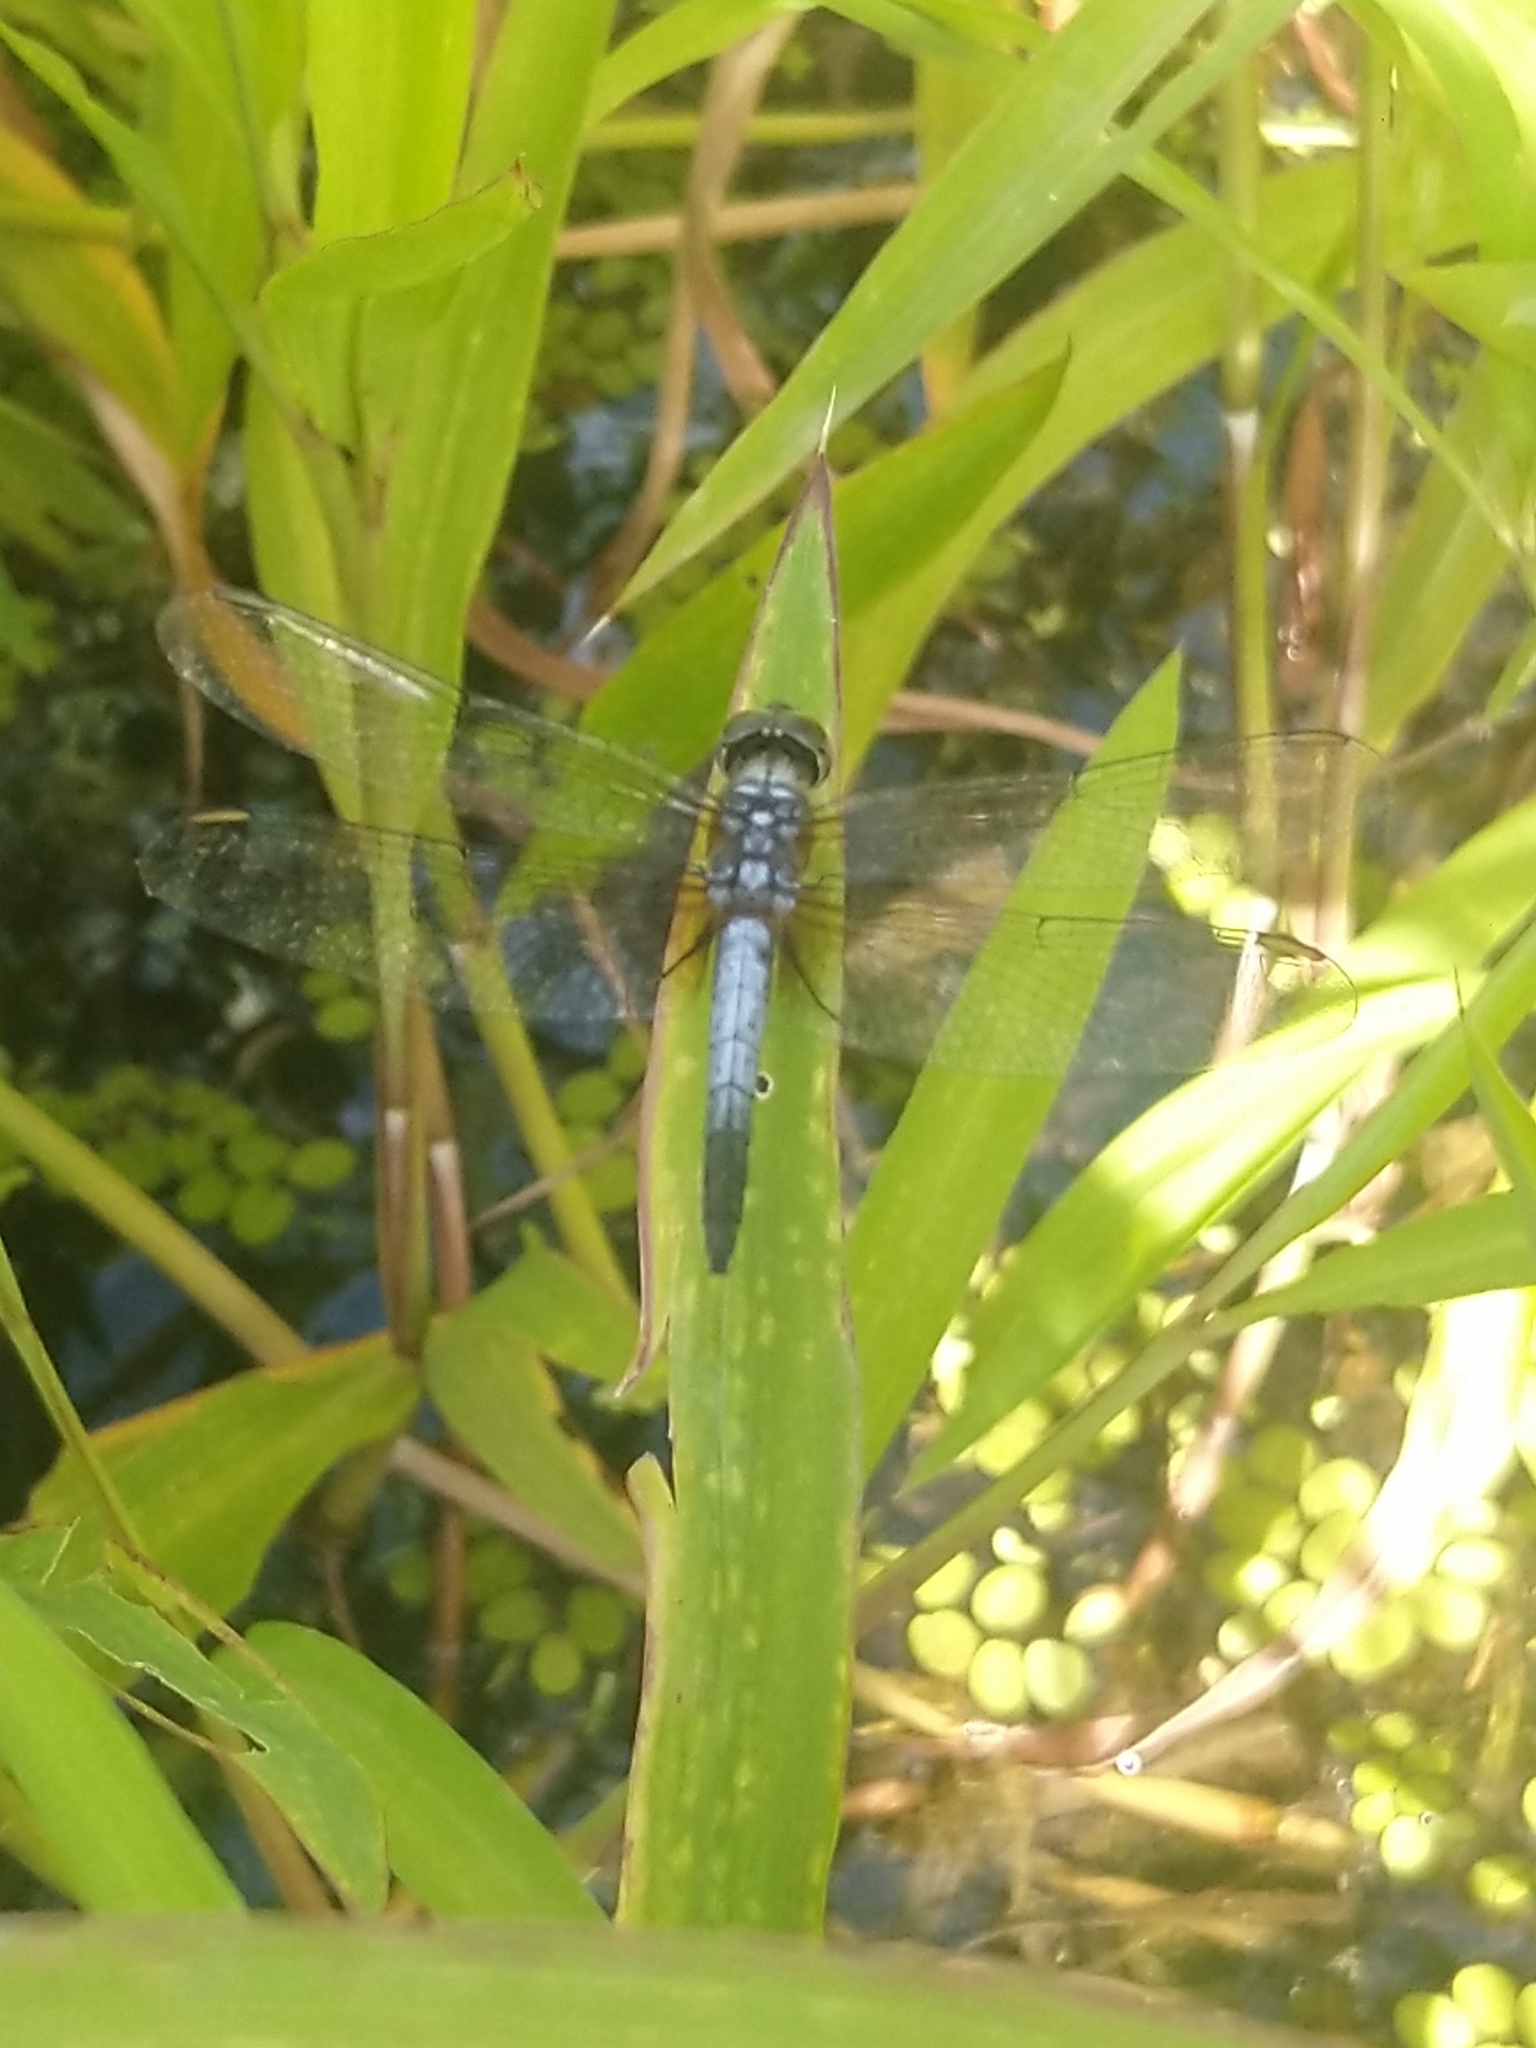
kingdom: Animalia
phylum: Arthropoda
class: Insecta
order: Odonata
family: Libellulidae
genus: Brachydiplax
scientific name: Brachydiplax chalybea
